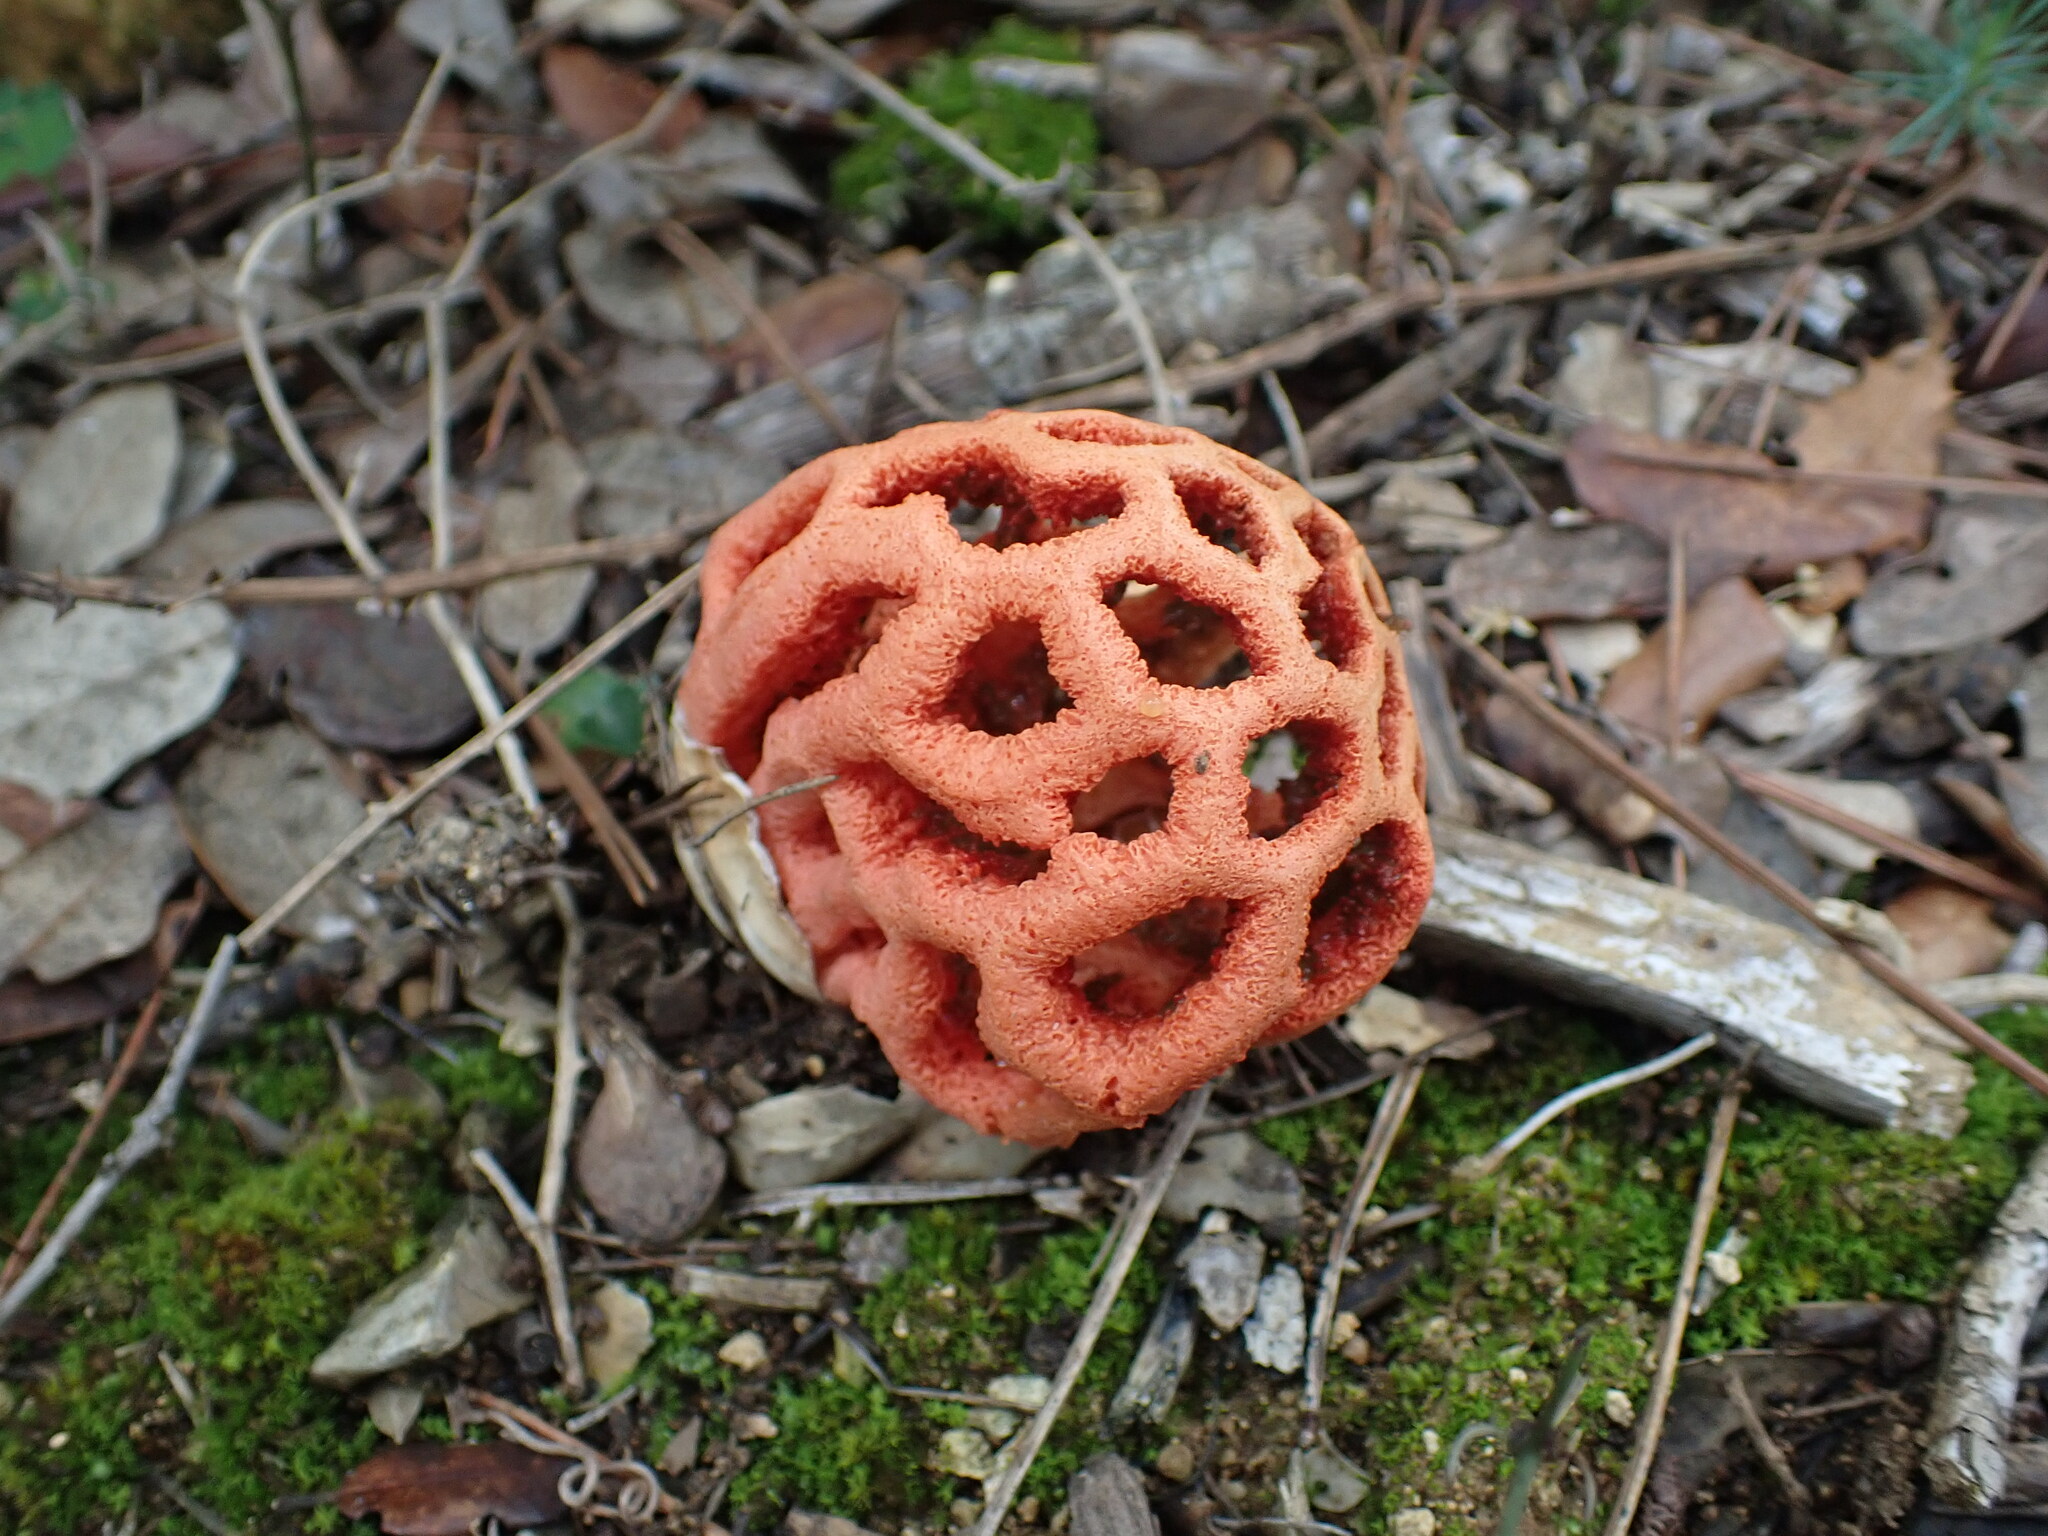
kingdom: Fungi
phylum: Basidiomycota
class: Agaricomycetes
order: Phallales
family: Phallaceae
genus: Clathrus
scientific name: Clathrus ruber
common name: Red cage
